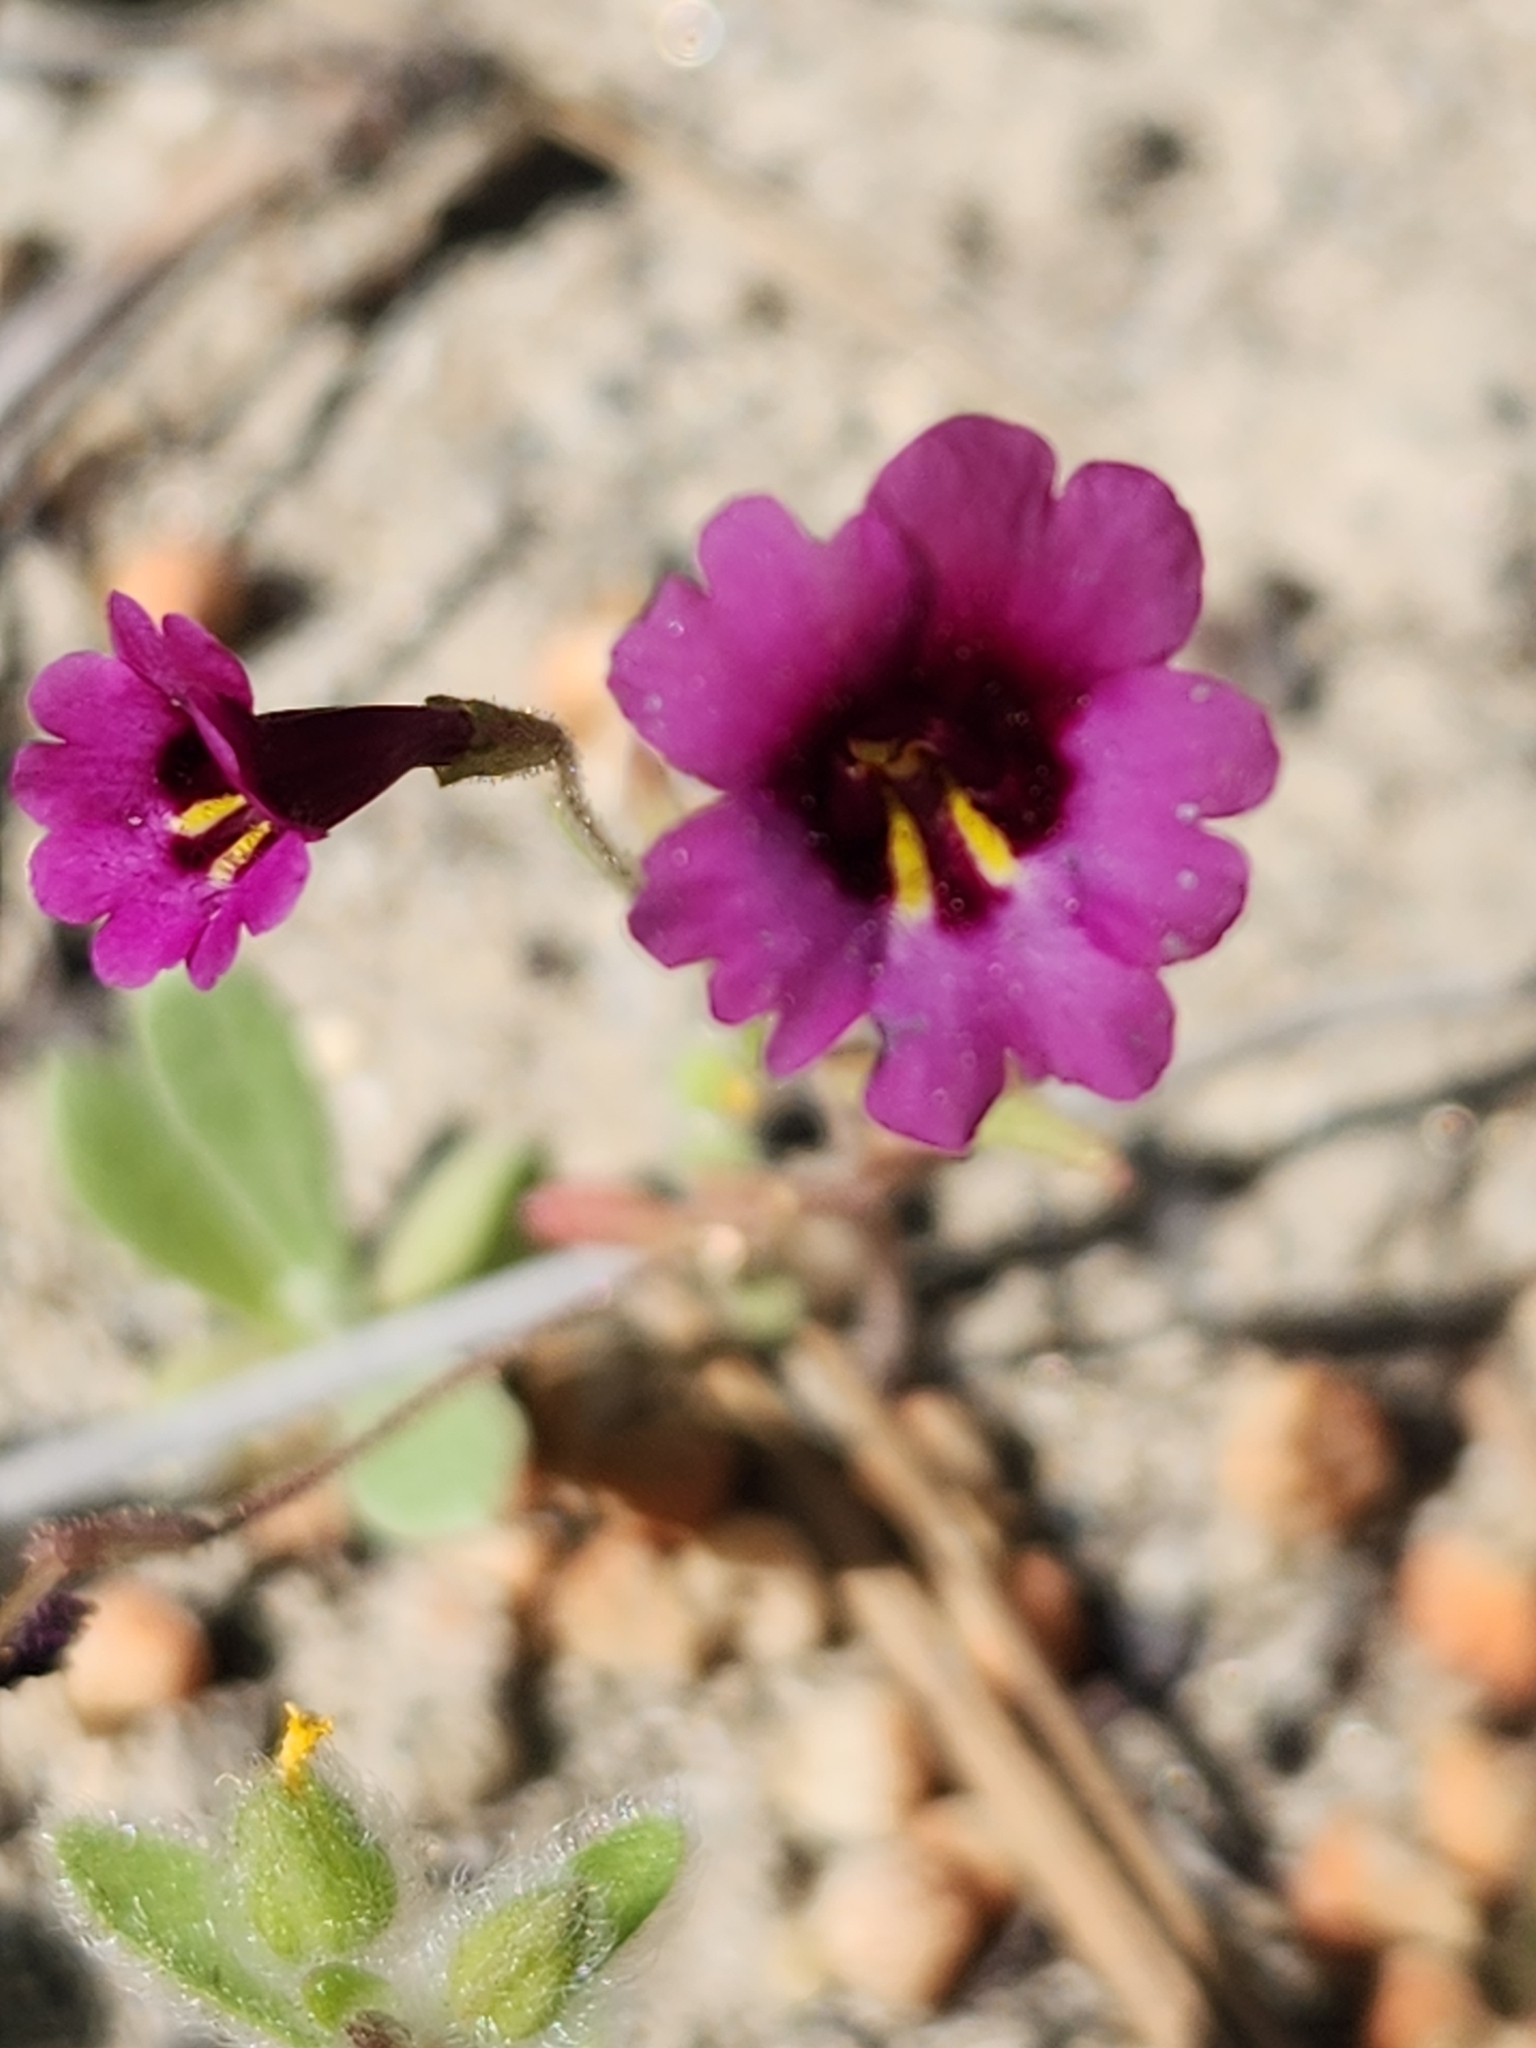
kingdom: Plantae
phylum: Tracheophyta
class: Magnoliopsida
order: Lamiales
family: Phrymaceae
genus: Erythranthe
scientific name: Erythranthe diffusa
